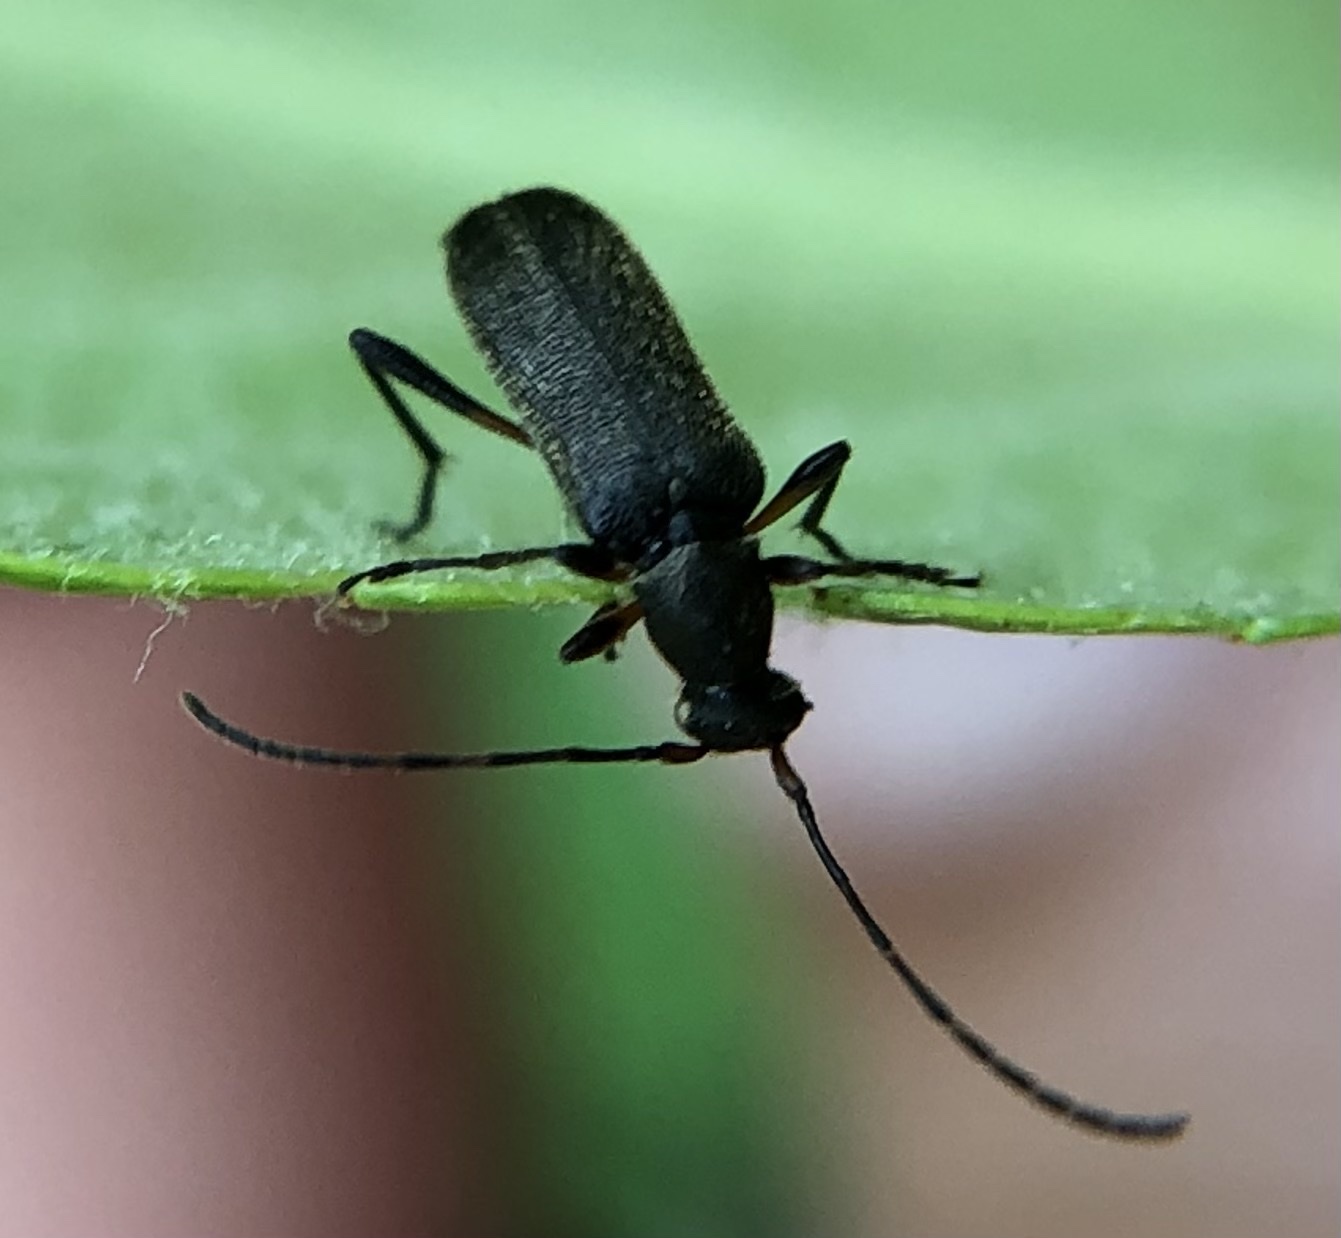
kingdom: Animalia
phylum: Arthropoda
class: Insecta
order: Coleoptera
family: Cerambycidae
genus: Grammoptera
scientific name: Grammoptera ruficornis
